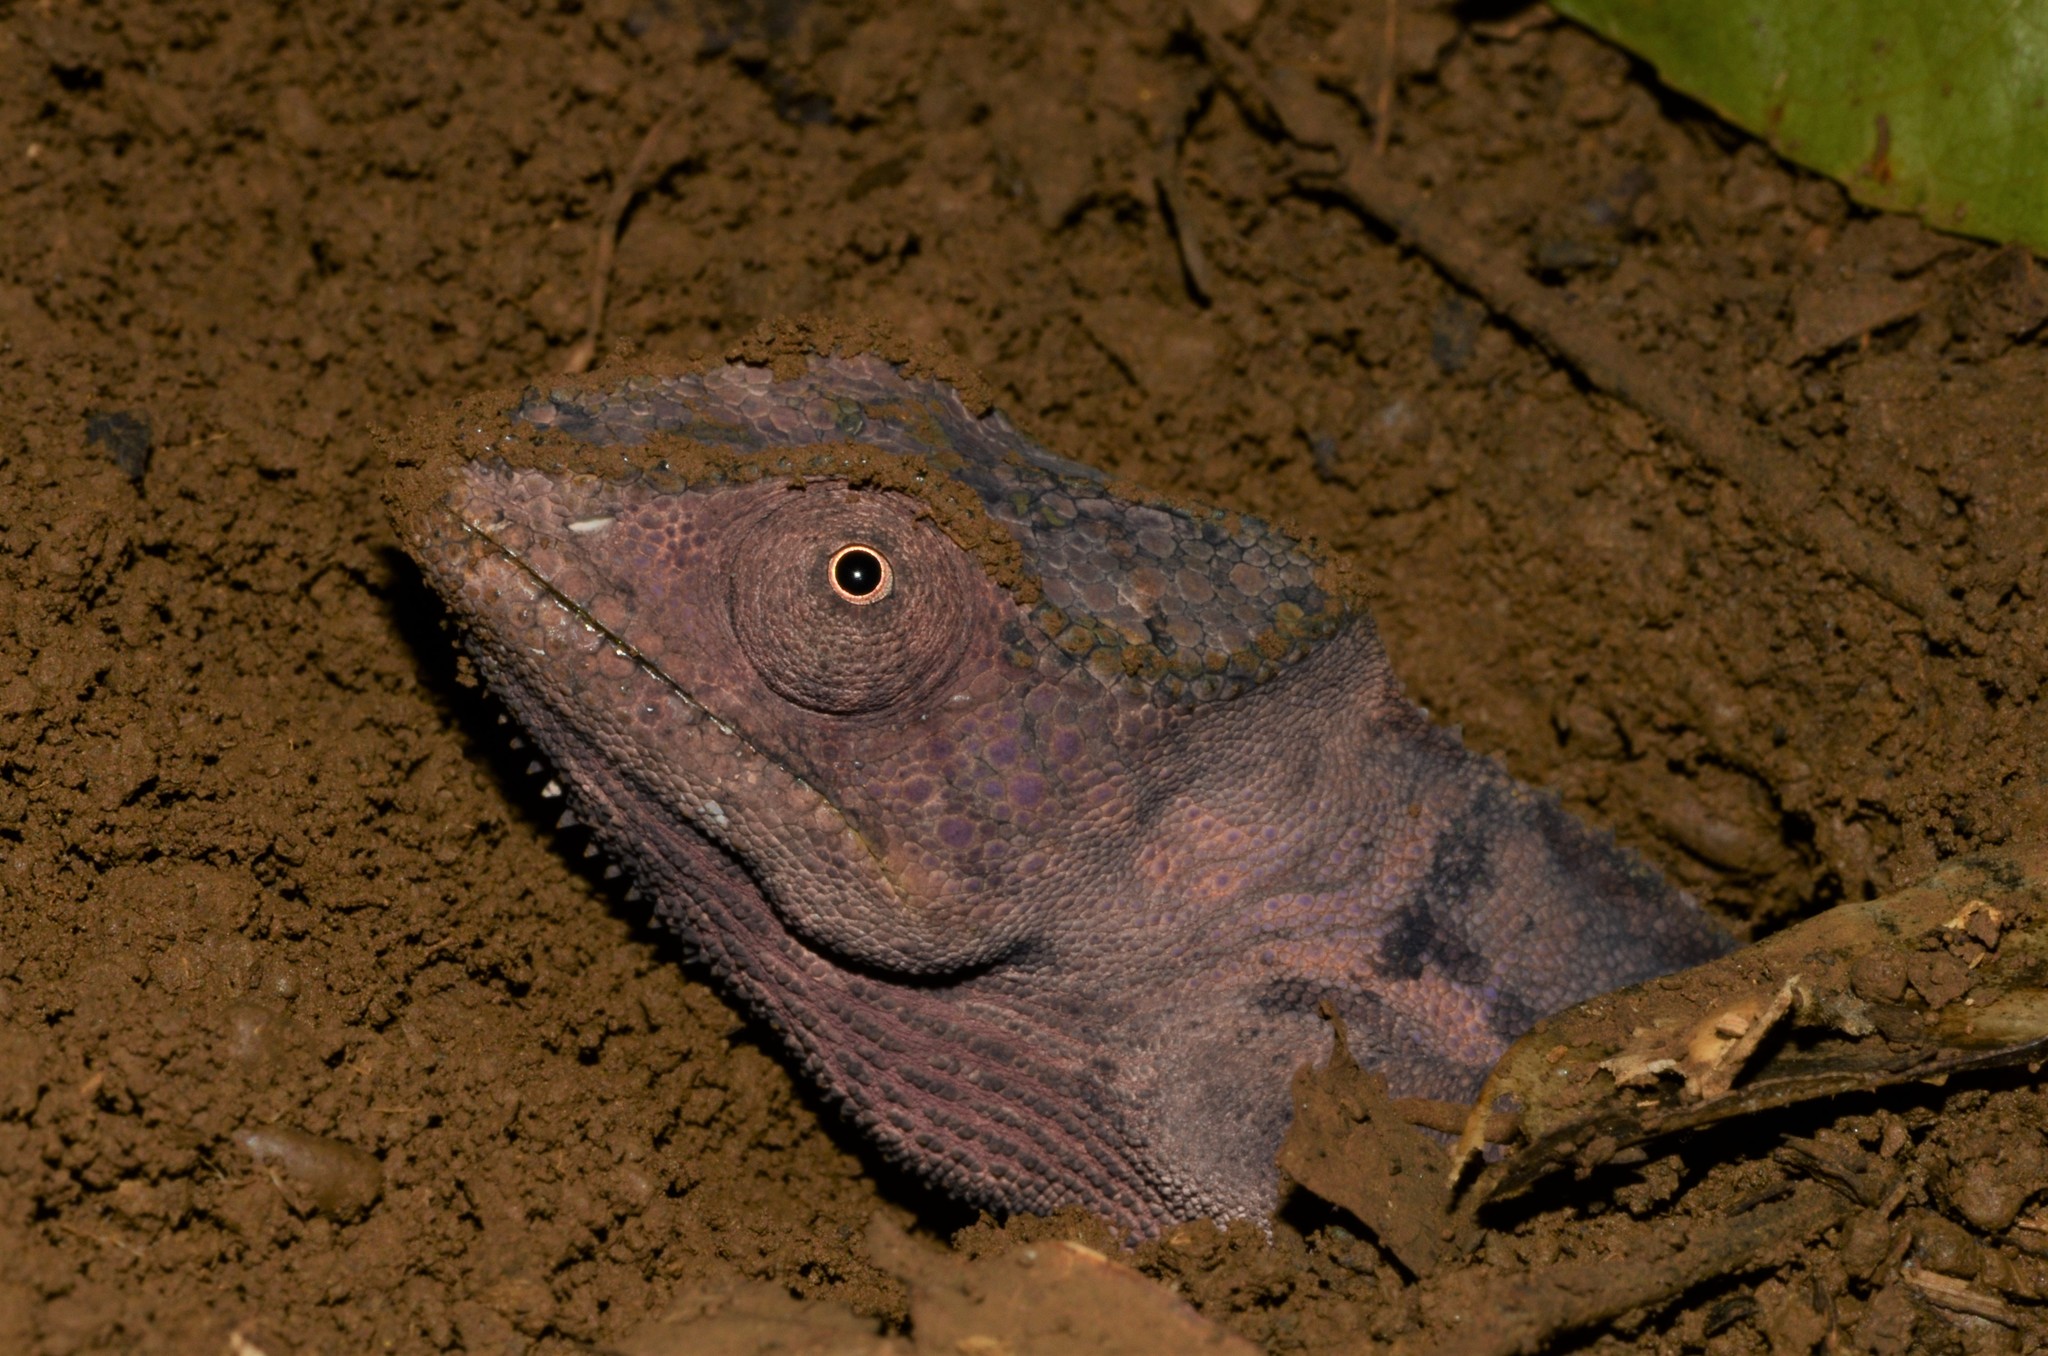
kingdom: Animalia
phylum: Chordata
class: Squamata
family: Chamaeleonidae
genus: Furcifer
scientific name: Furcifer pardalis
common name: Panther chameleon
